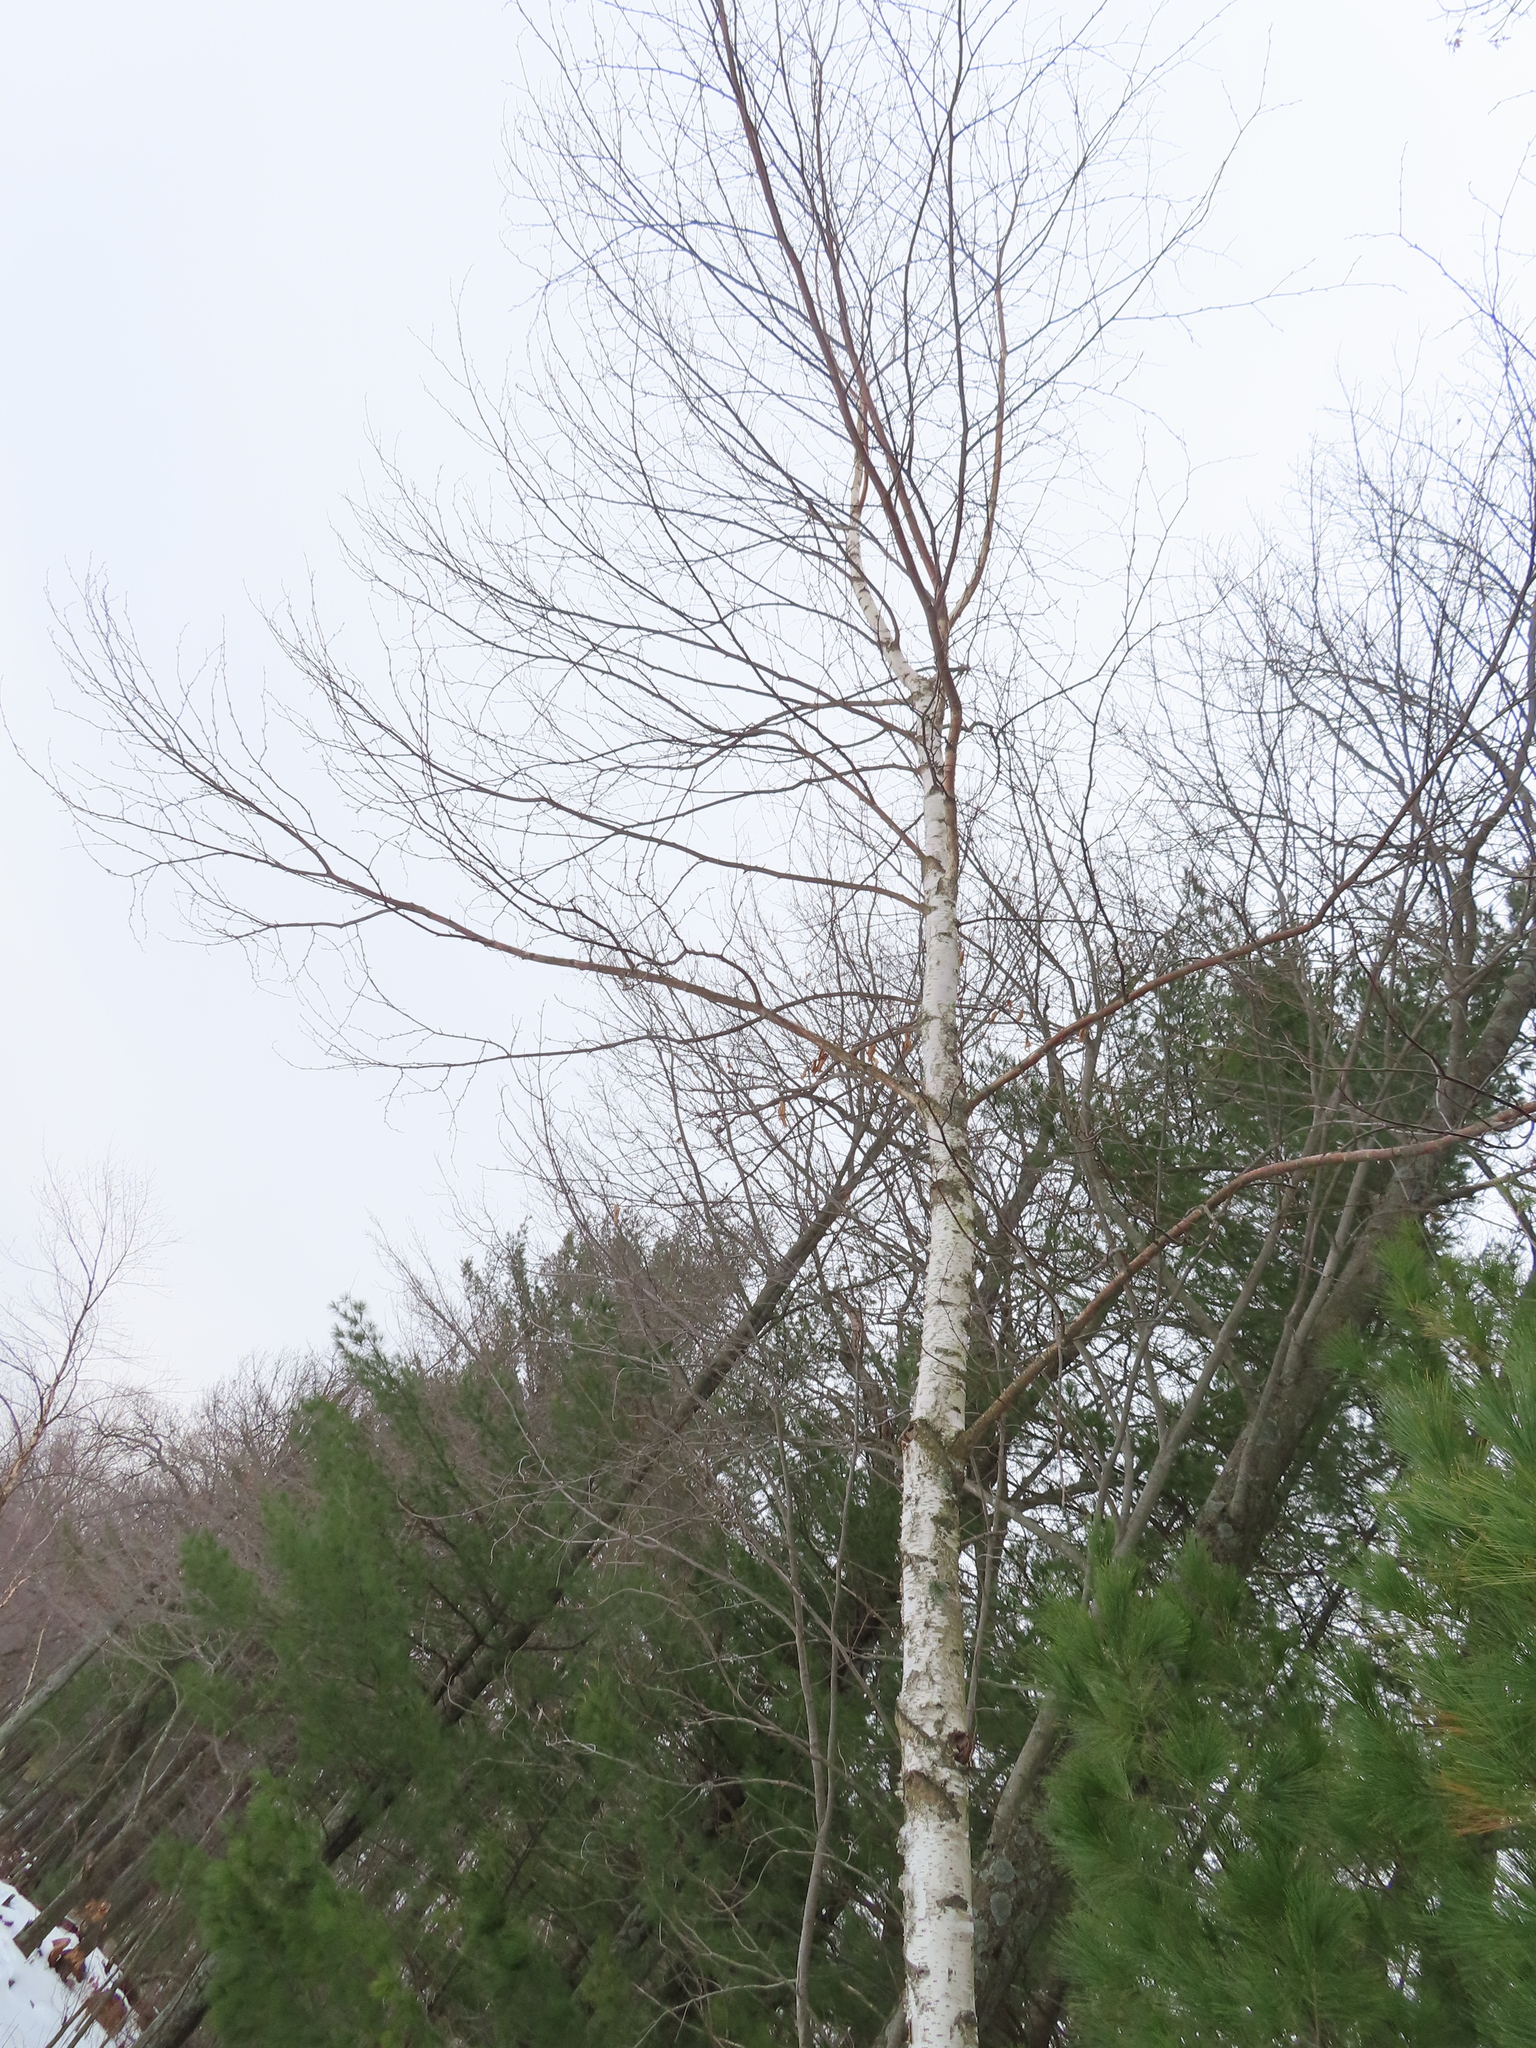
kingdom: Plantae
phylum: Tracheophyta
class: Magnoliopsida
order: Fagales
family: Betulaceae
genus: Betula
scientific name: Betula papyrifera
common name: Paper birch
